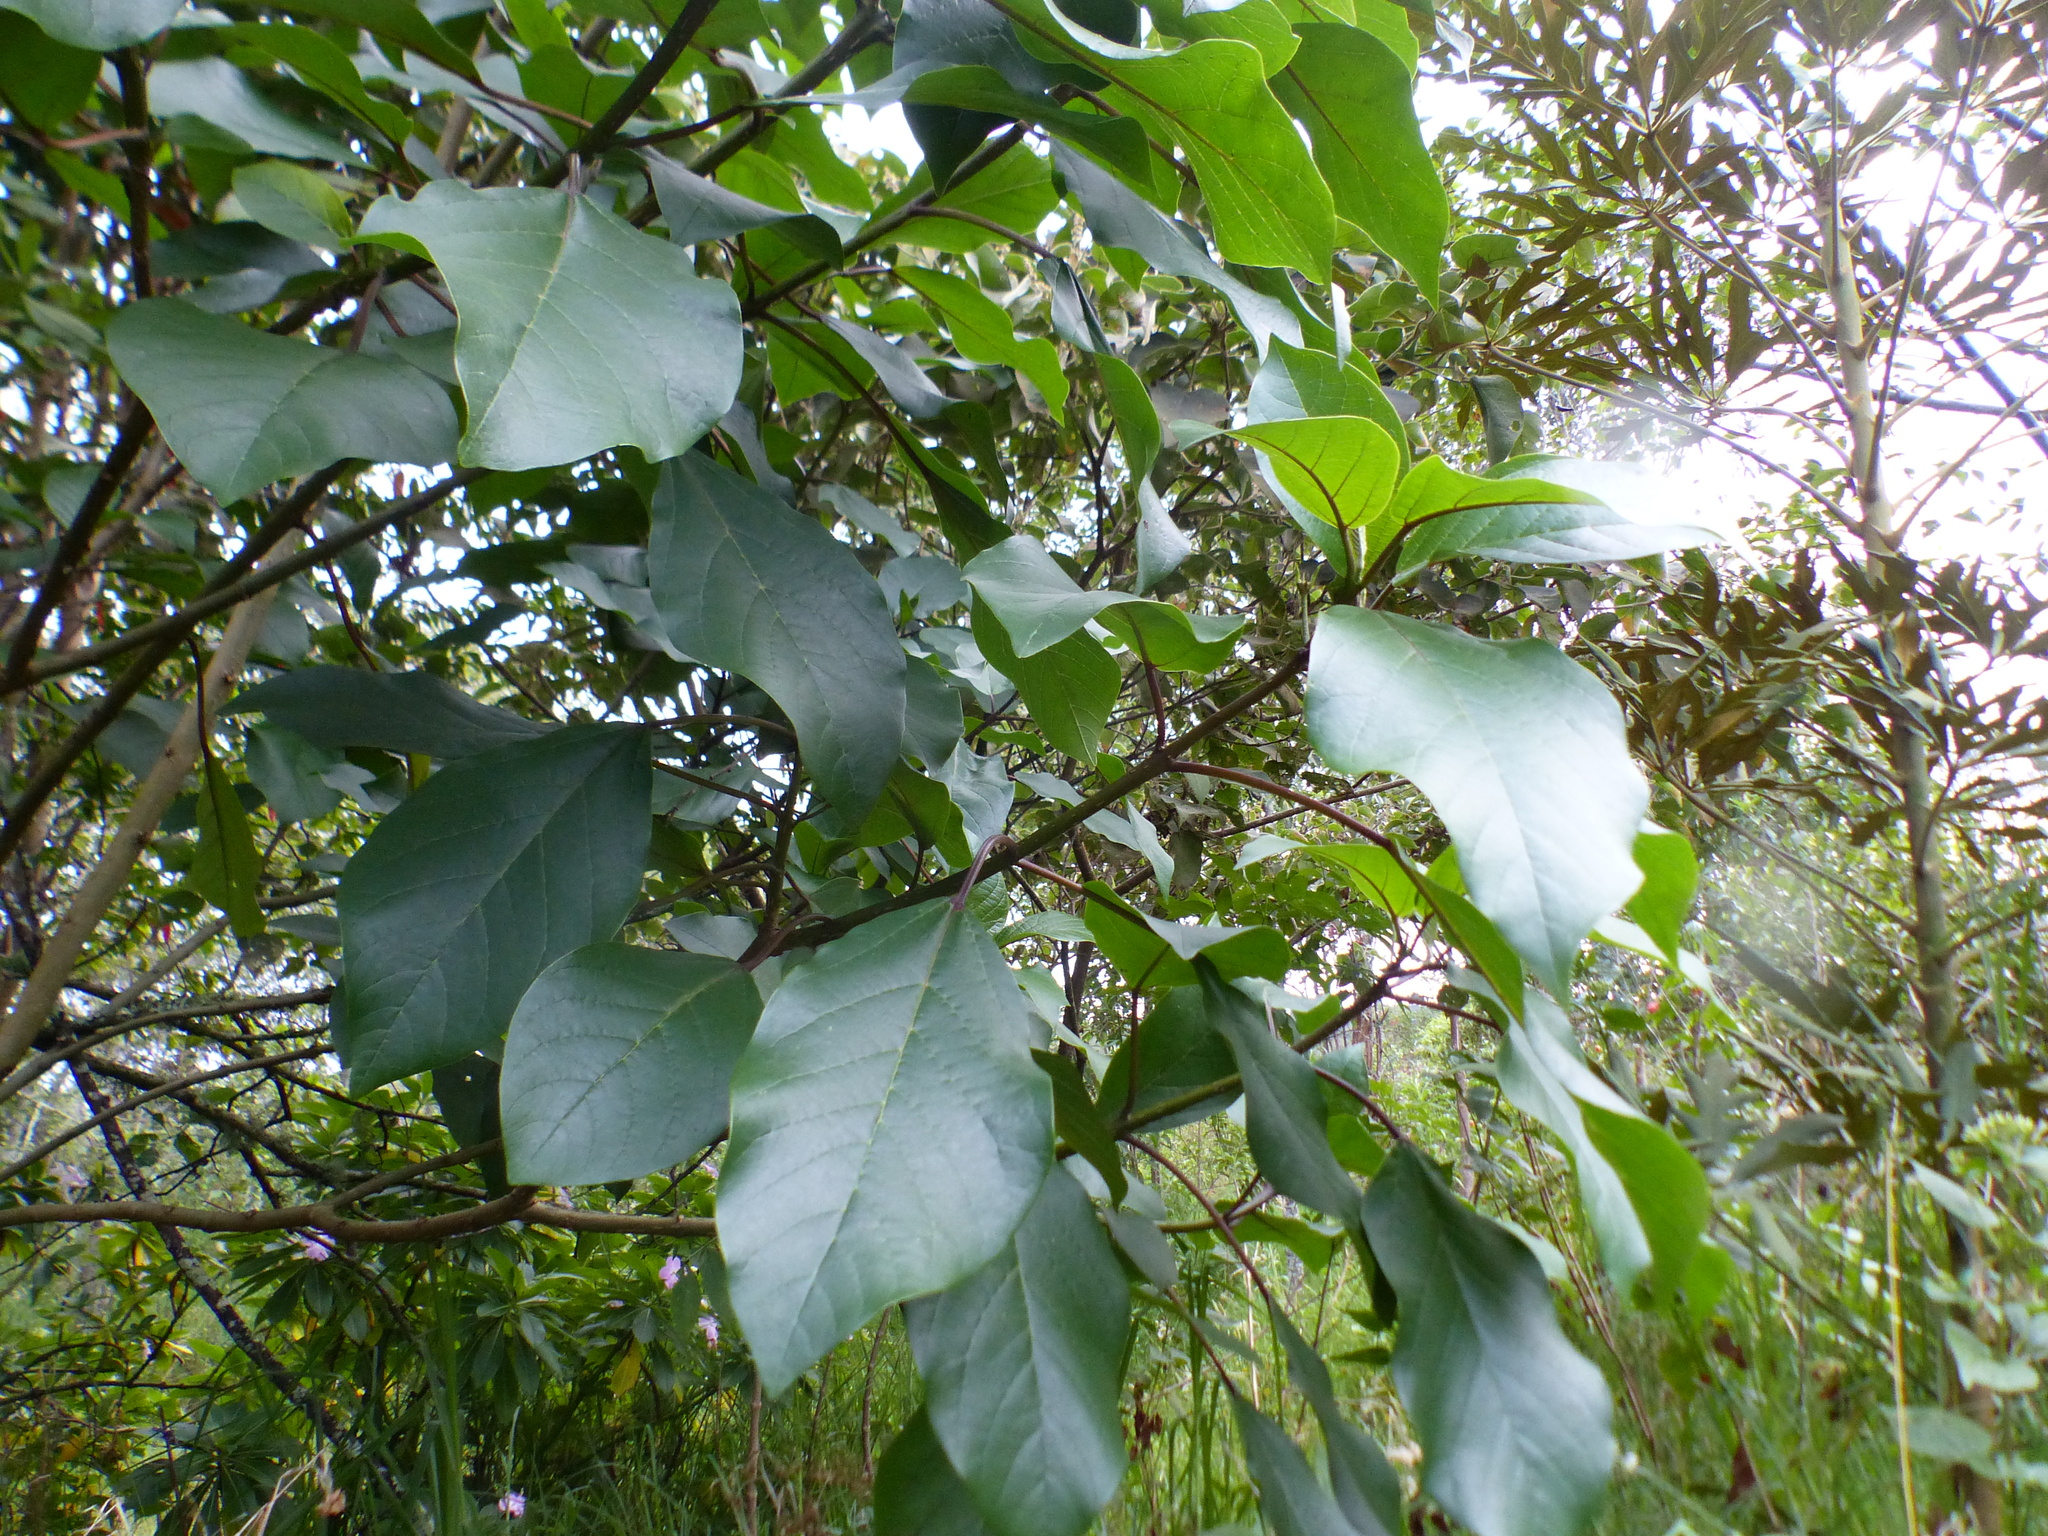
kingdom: Plantae
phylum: Tracheophyta
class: Magnoliopsida
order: Lamiales
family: Bignoniaceae
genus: Delostoma
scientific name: Delostoma integrifolium
